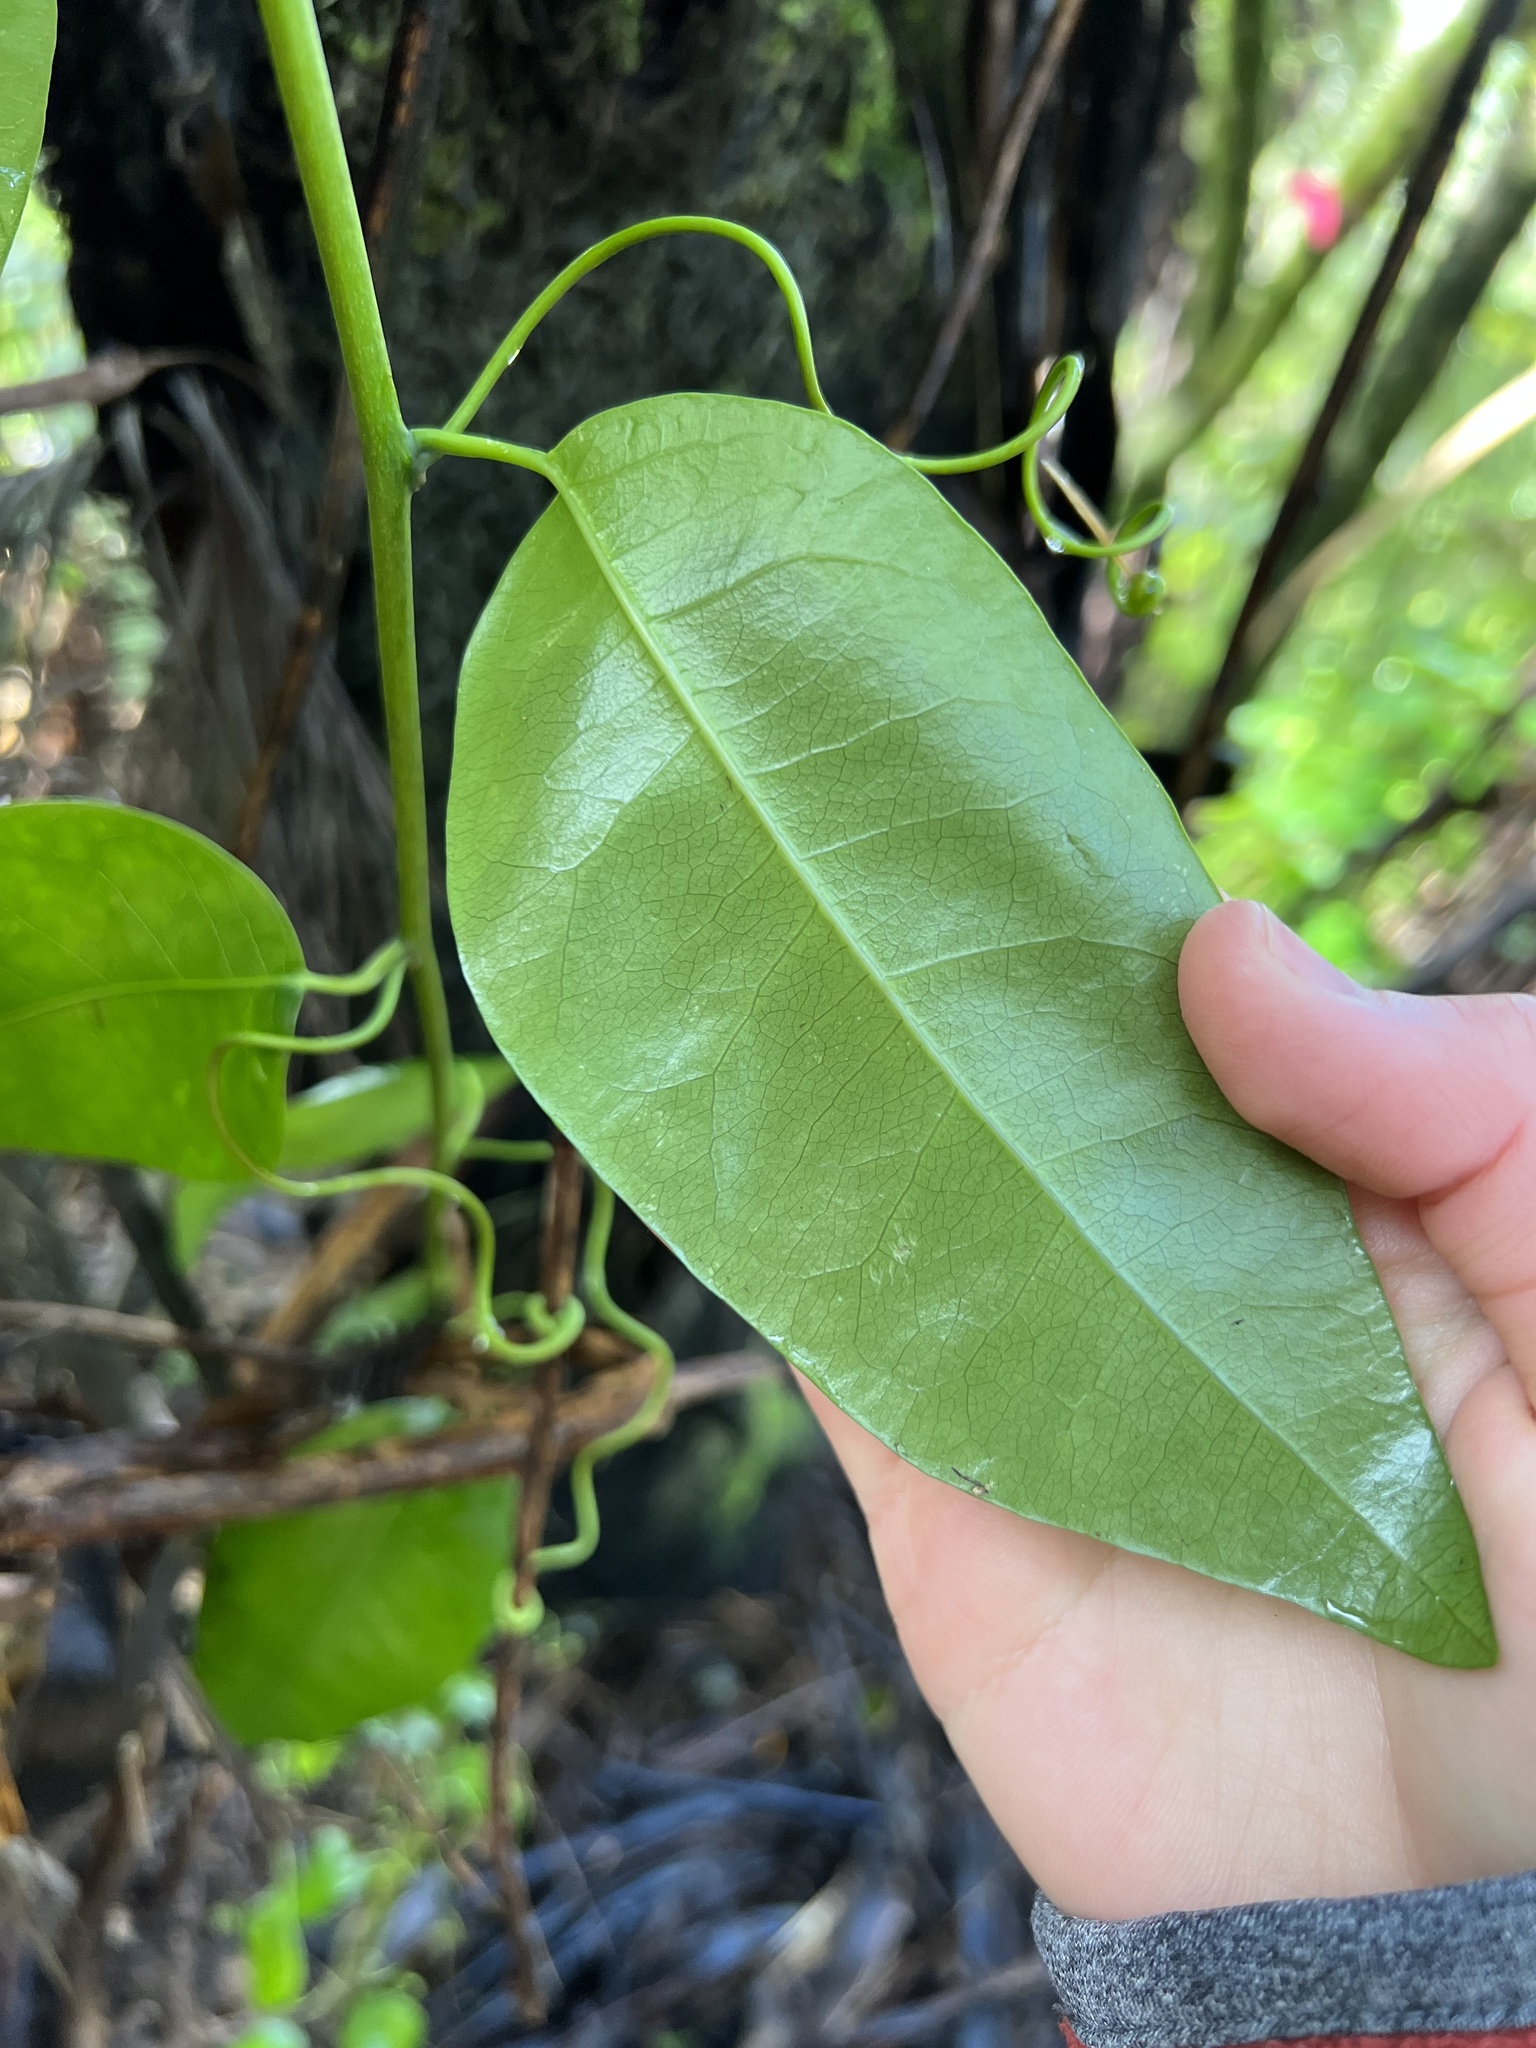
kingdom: Plantae
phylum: Tracheophyta
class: Magnoliopsida
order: Malpighiales
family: Passifloraceae
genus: Passiflora
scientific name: Passiflora tetrandra
